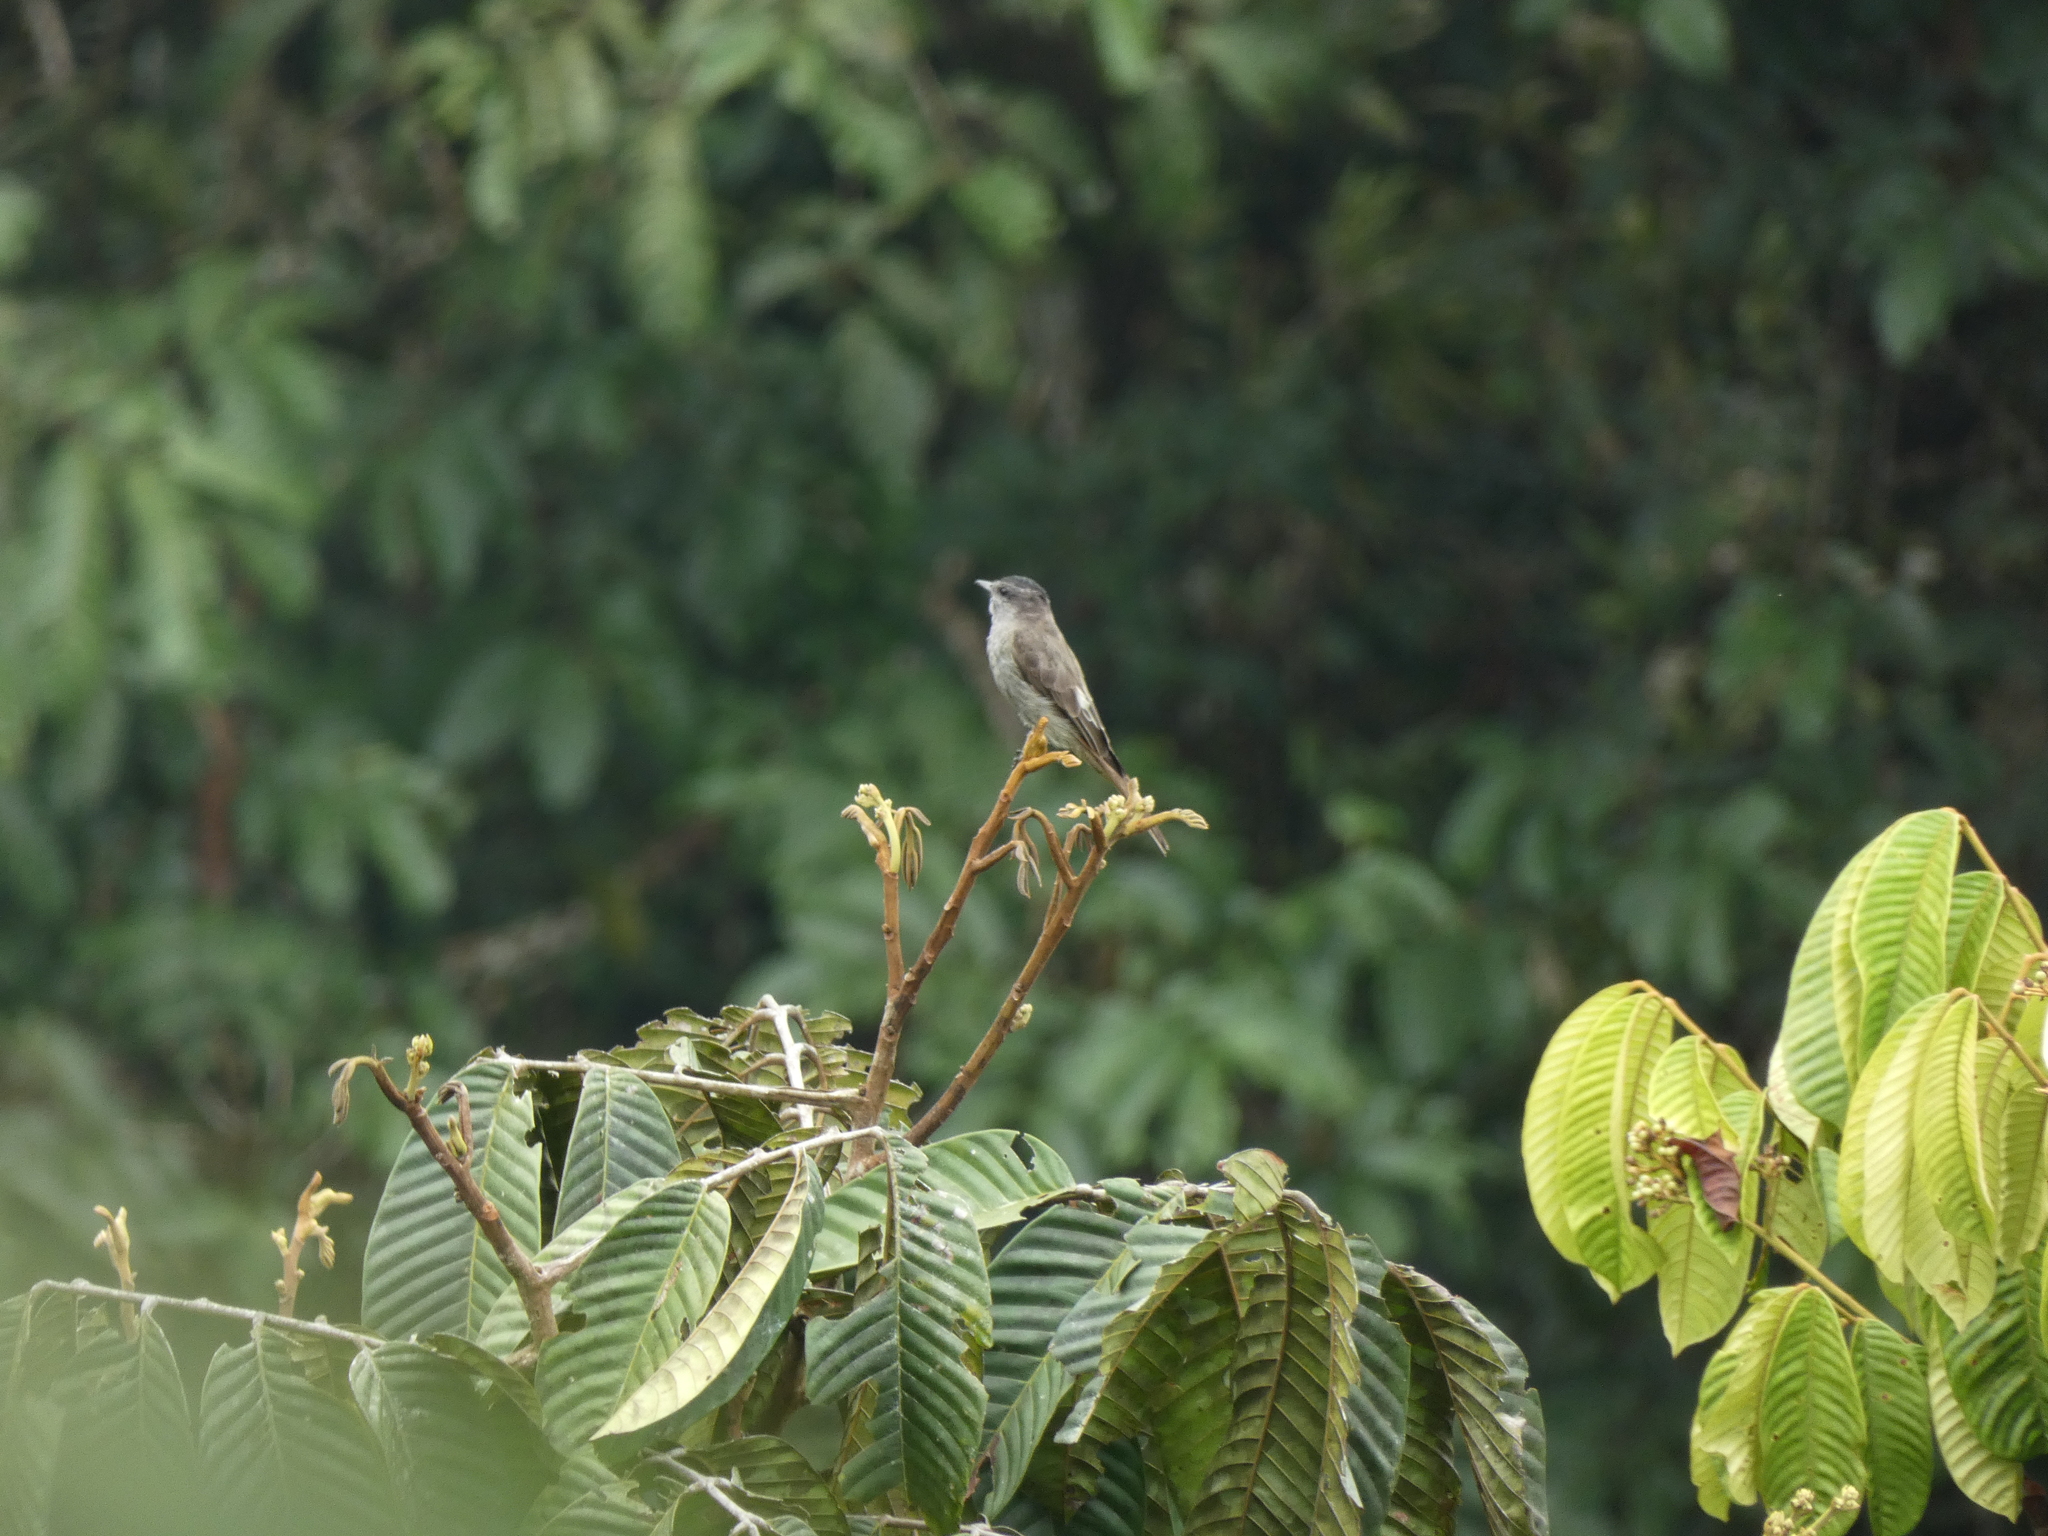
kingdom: Animalia
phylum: Chordata
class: Aves
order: Passeriformes
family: Tyrannidae
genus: Empidonomus
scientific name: Empidonomus aurantioatrocristatus
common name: Crowned slaty flycatcher
